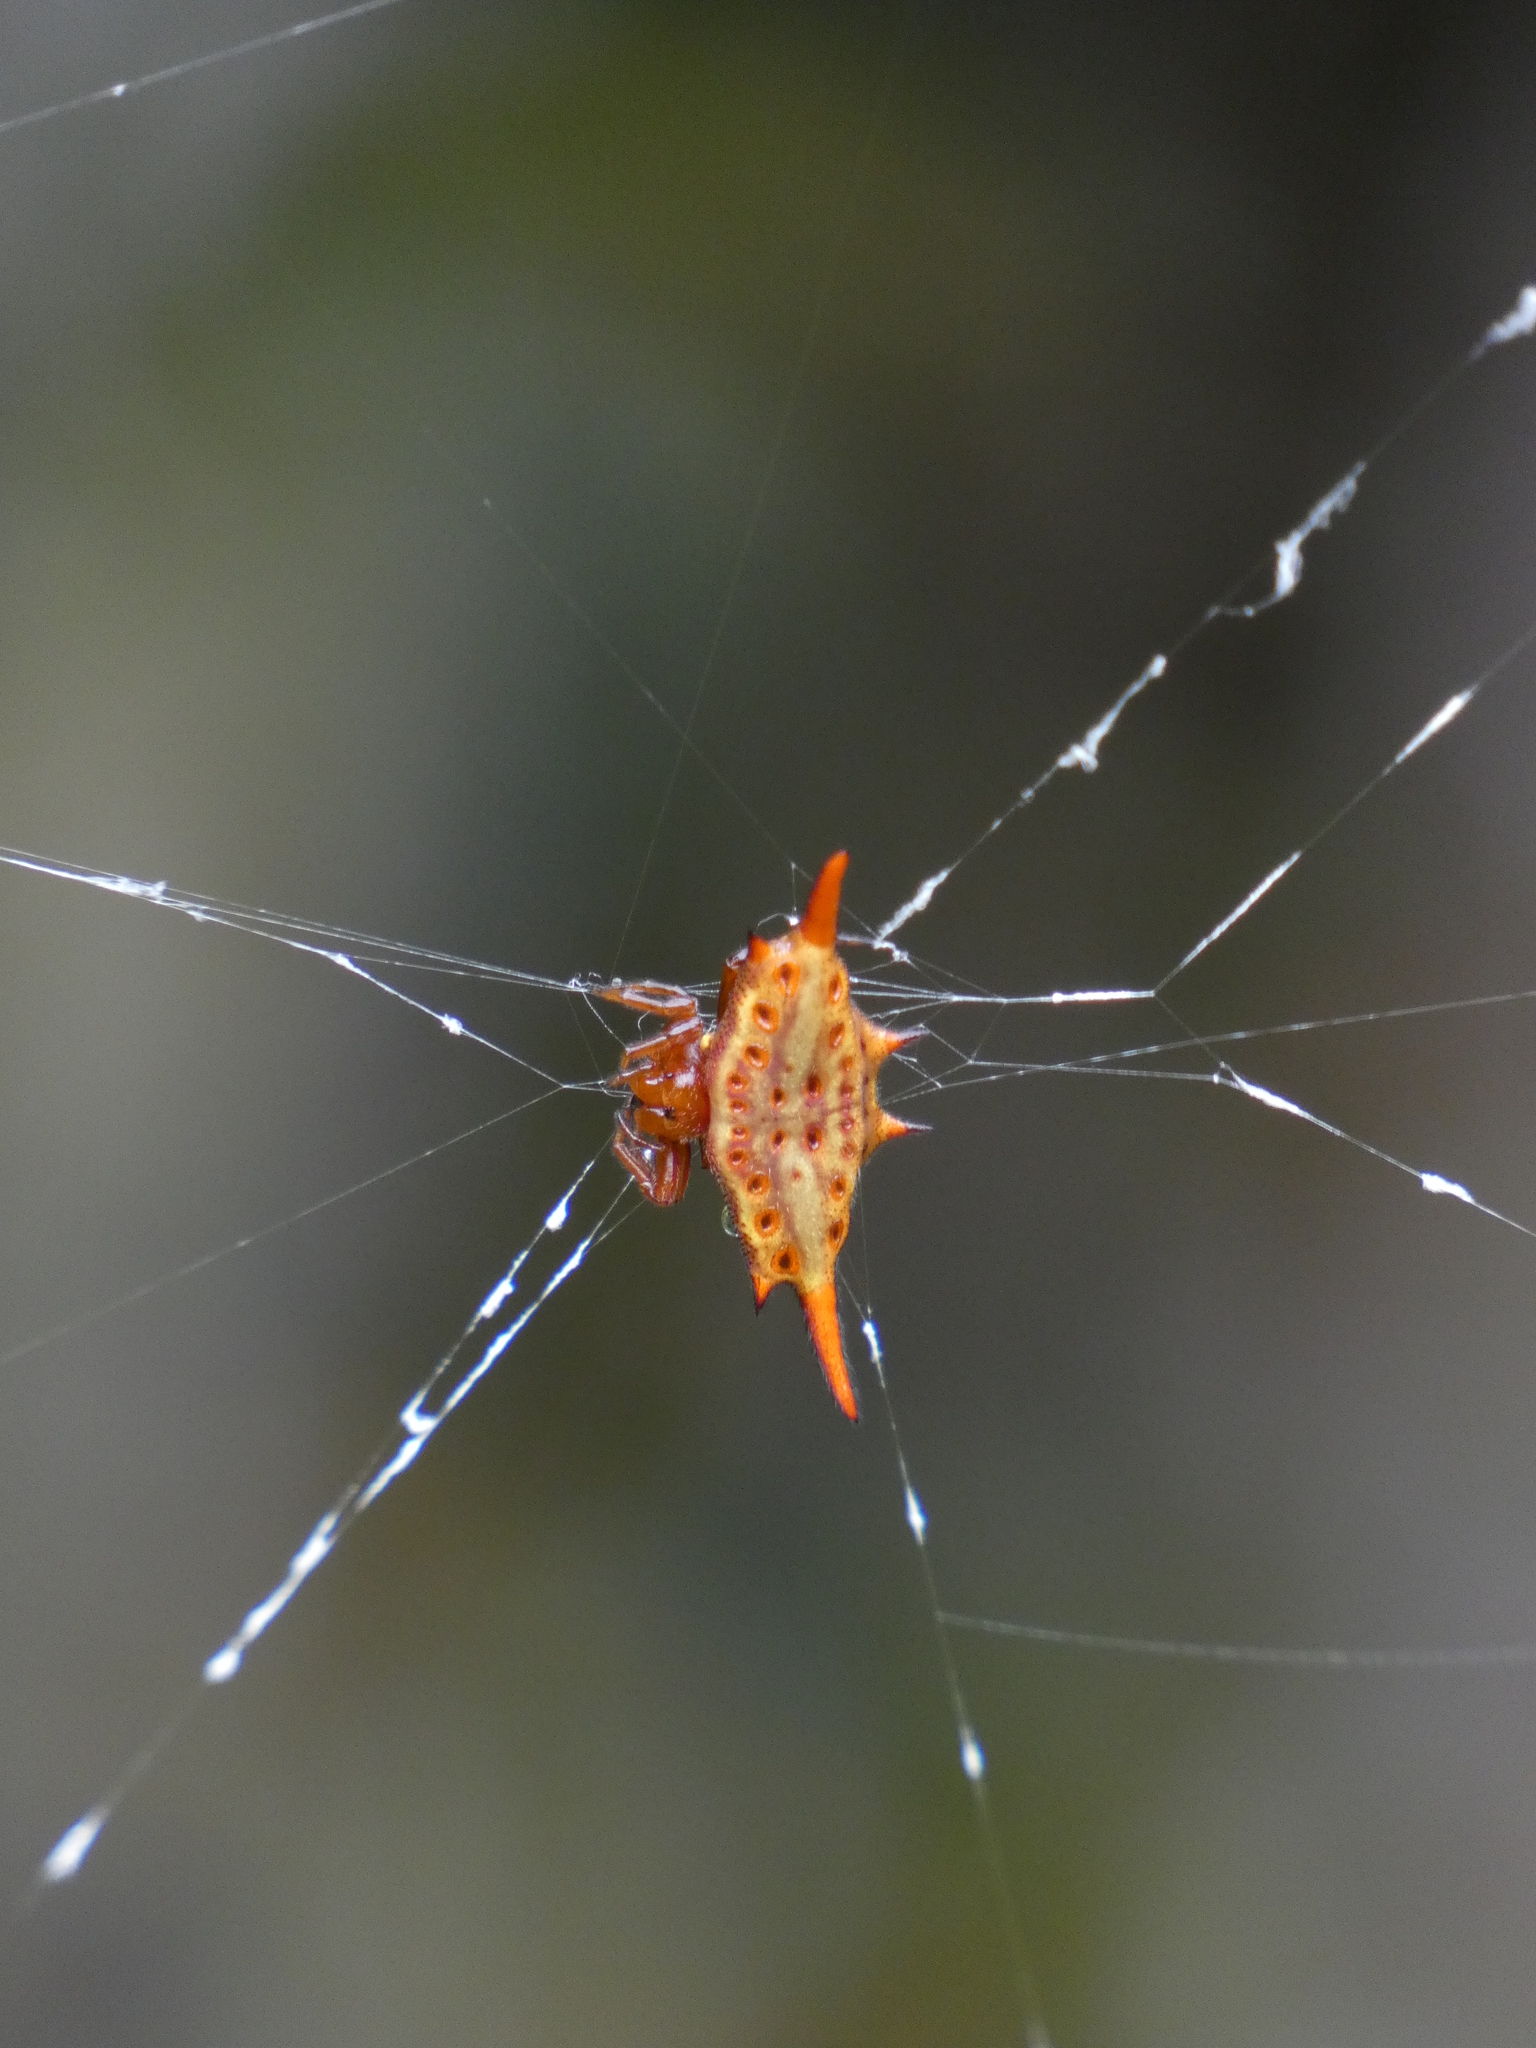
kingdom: Animalia
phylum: Arthropoda
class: Arachnida
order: Araneae
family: Araneidae
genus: Gasteracantha
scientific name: Gasteracantha versicolor
